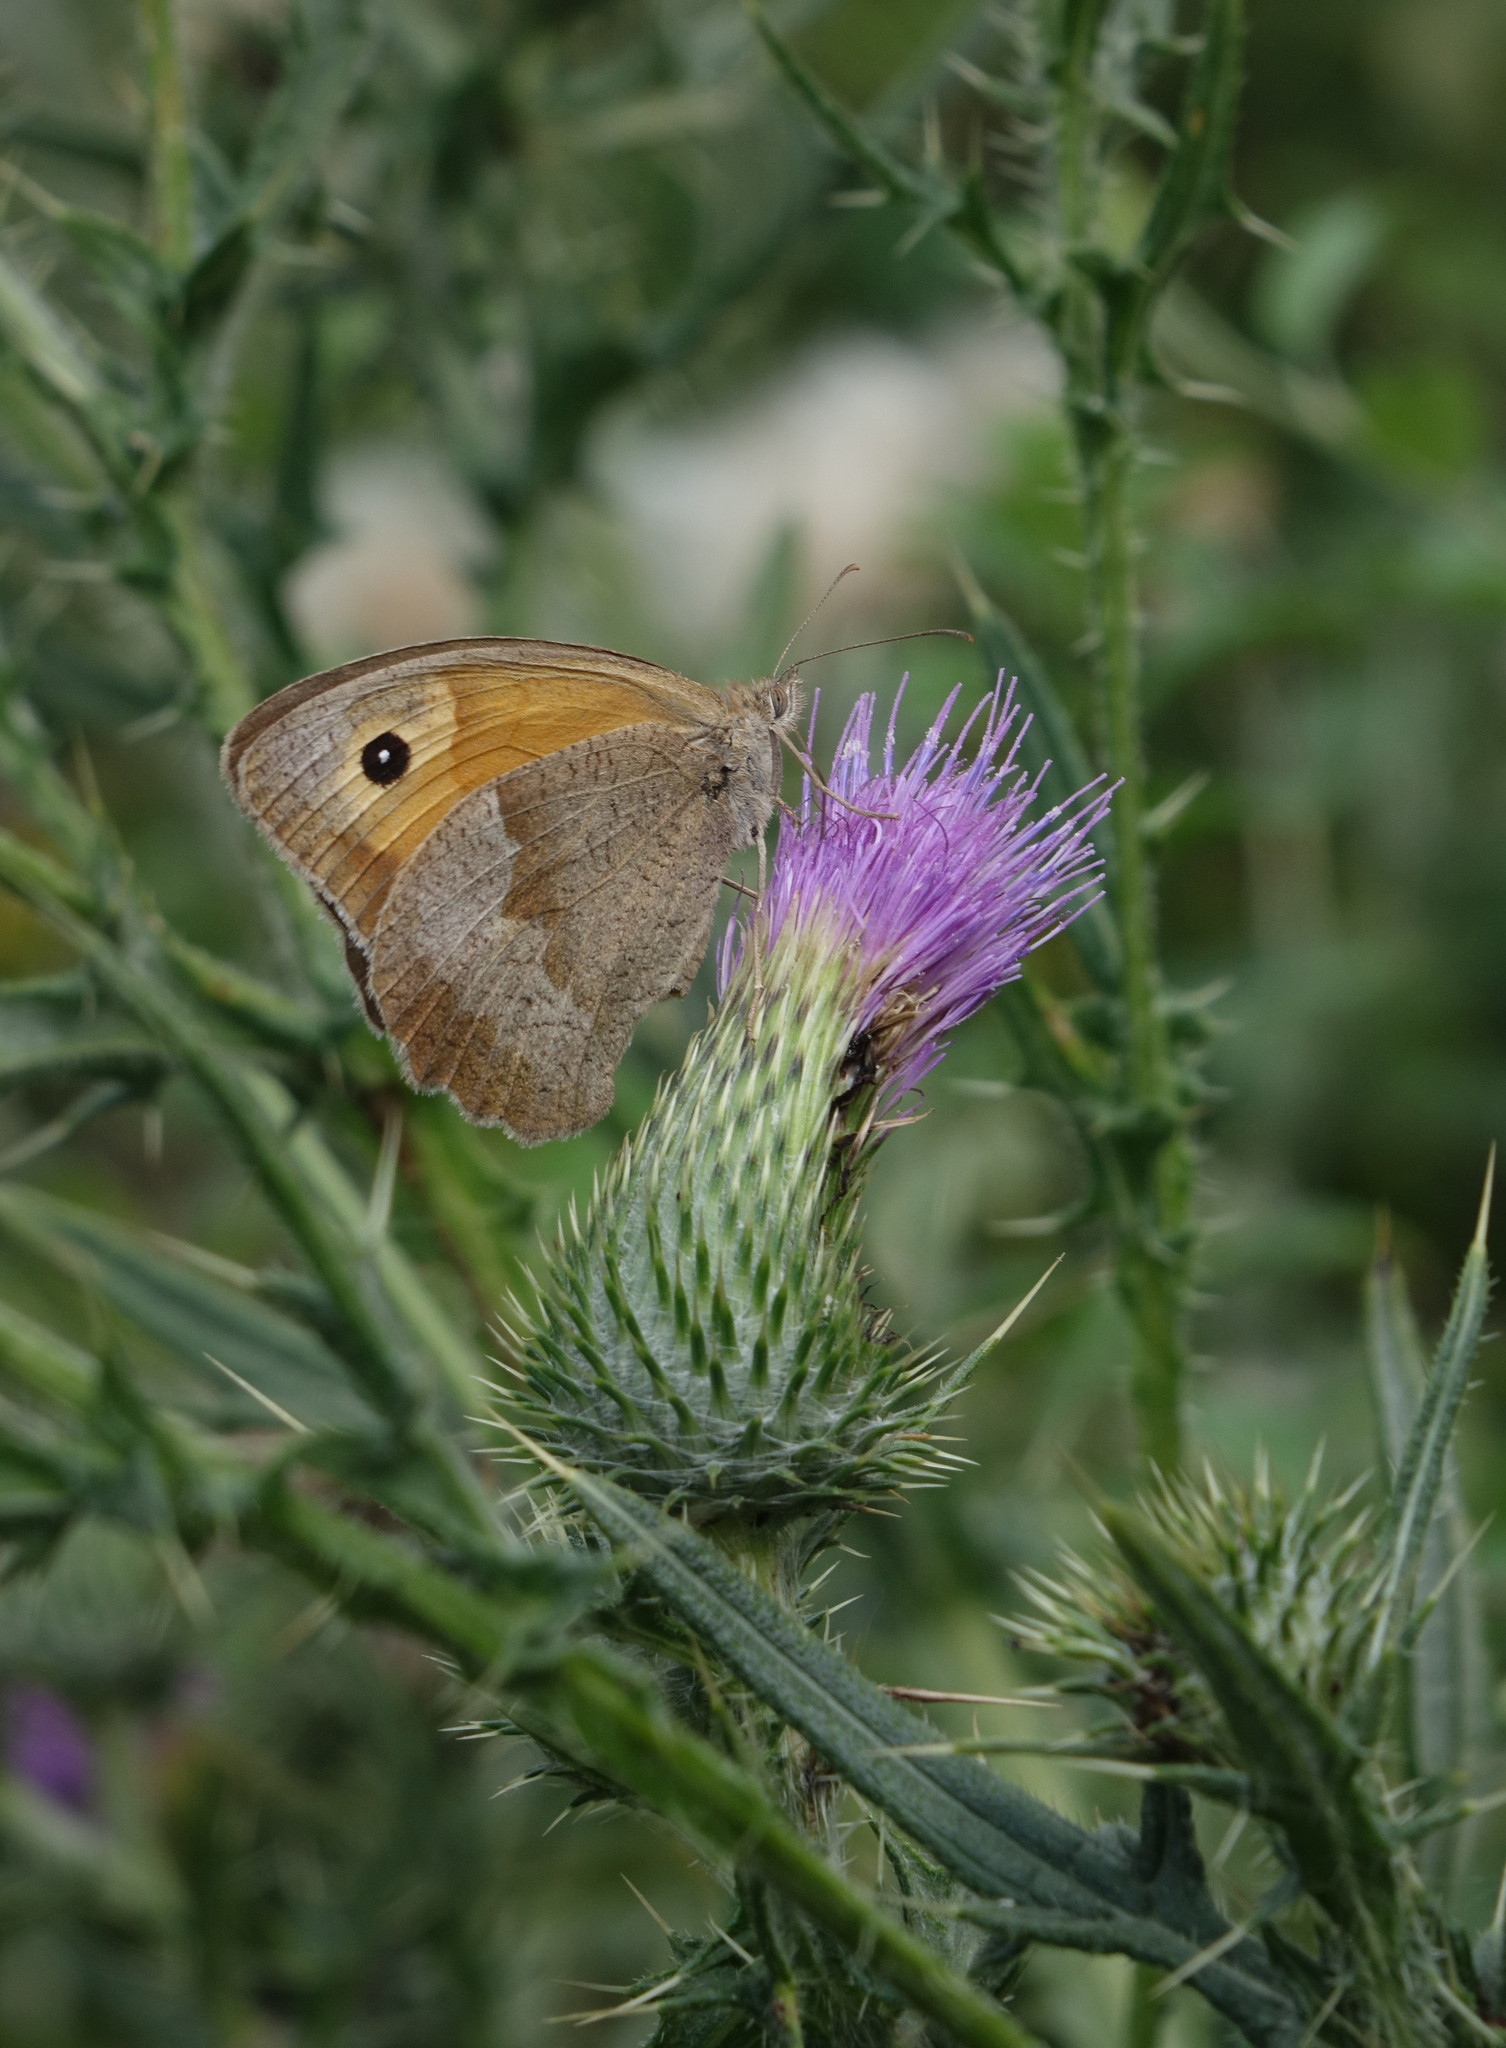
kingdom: Plantae
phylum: Tracheophyta
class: Magnoliopsida
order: Asterales
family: Asteraceae
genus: Cirsium
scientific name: Cirsium vulgare
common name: Bull thistle
